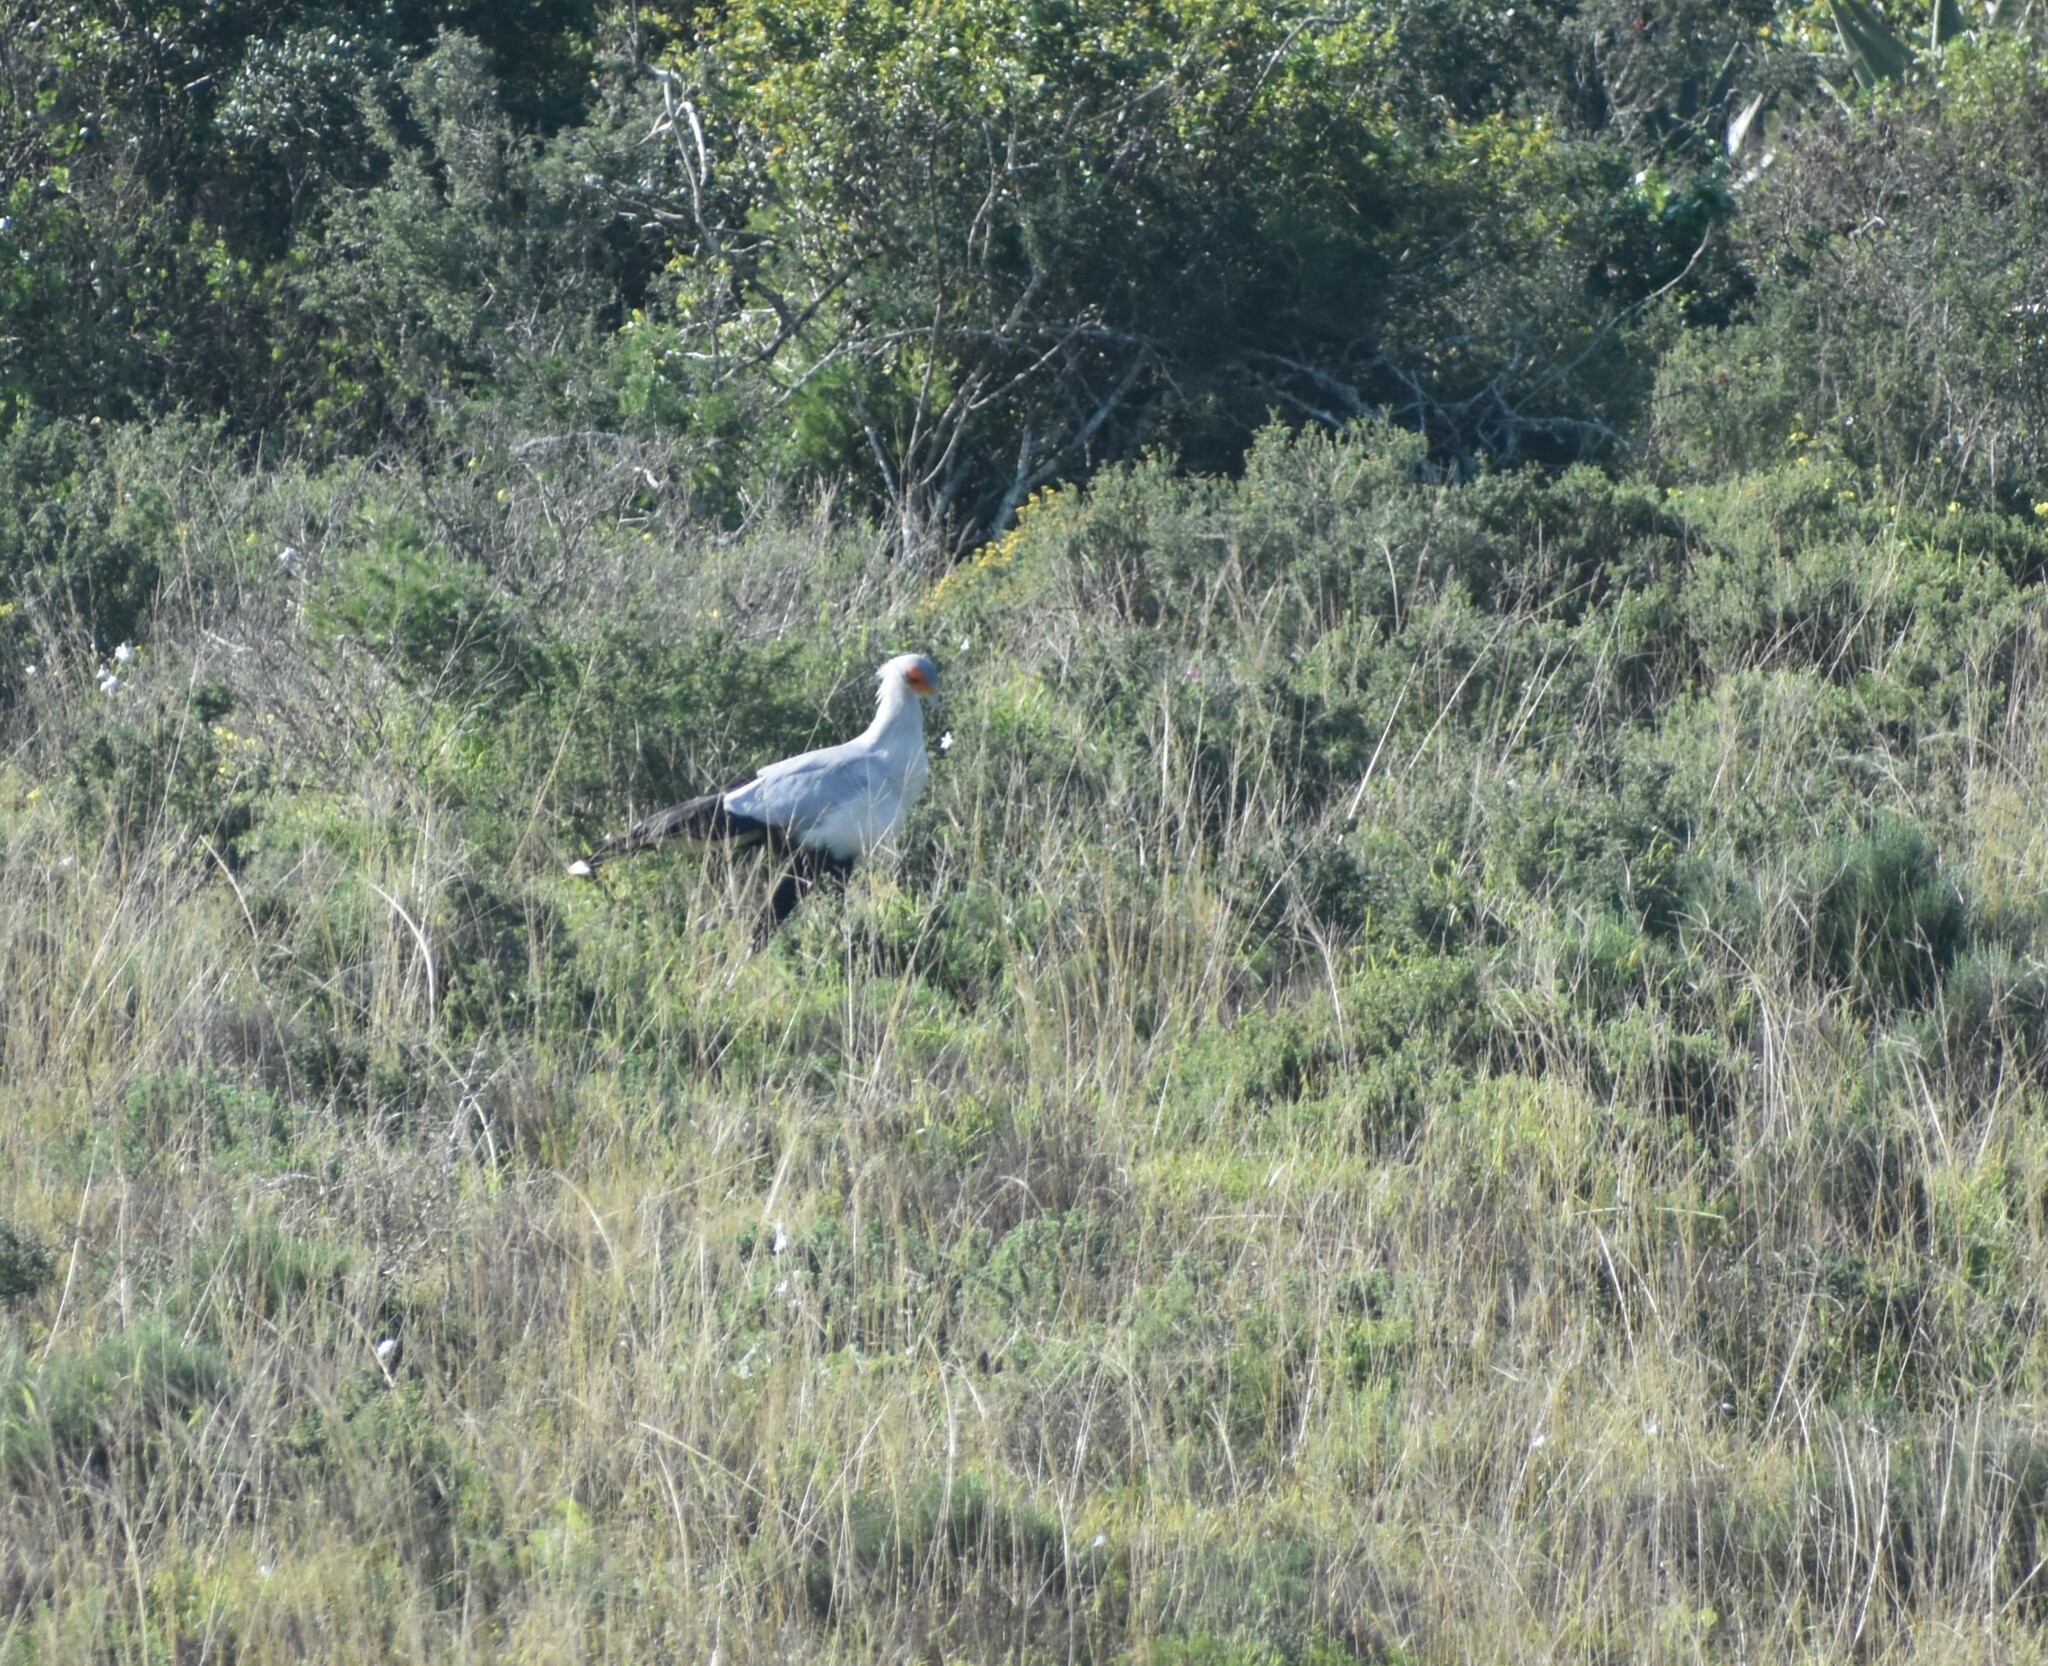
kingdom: Animalia
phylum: Chordata
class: Aves
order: Accipitriformes
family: Sagittariidae
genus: Sagittarius
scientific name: Sagittarius serpentarius
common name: Secretarybird
